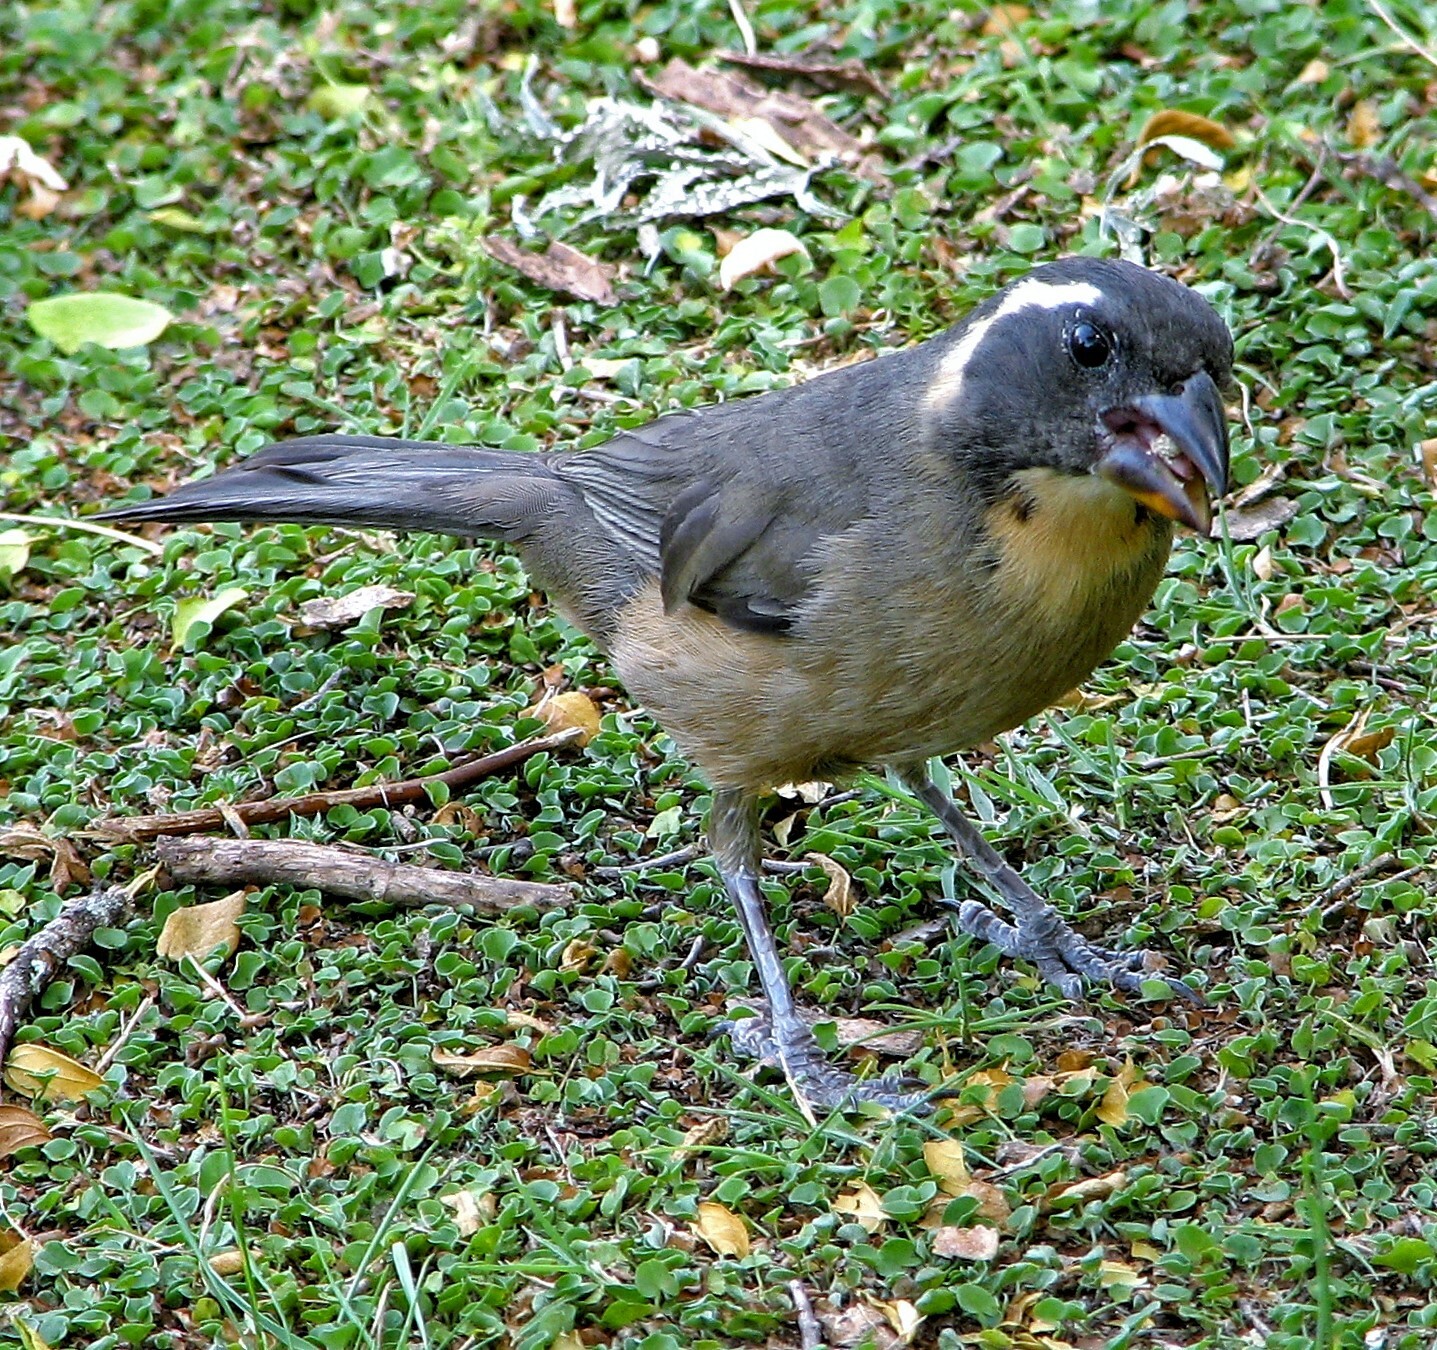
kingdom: Animalia
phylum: Chordata
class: Aves
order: Passeriformes
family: Thraupidae
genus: Saltator
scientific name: Saltator aurantiirostris
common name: Golden-billed saltator
